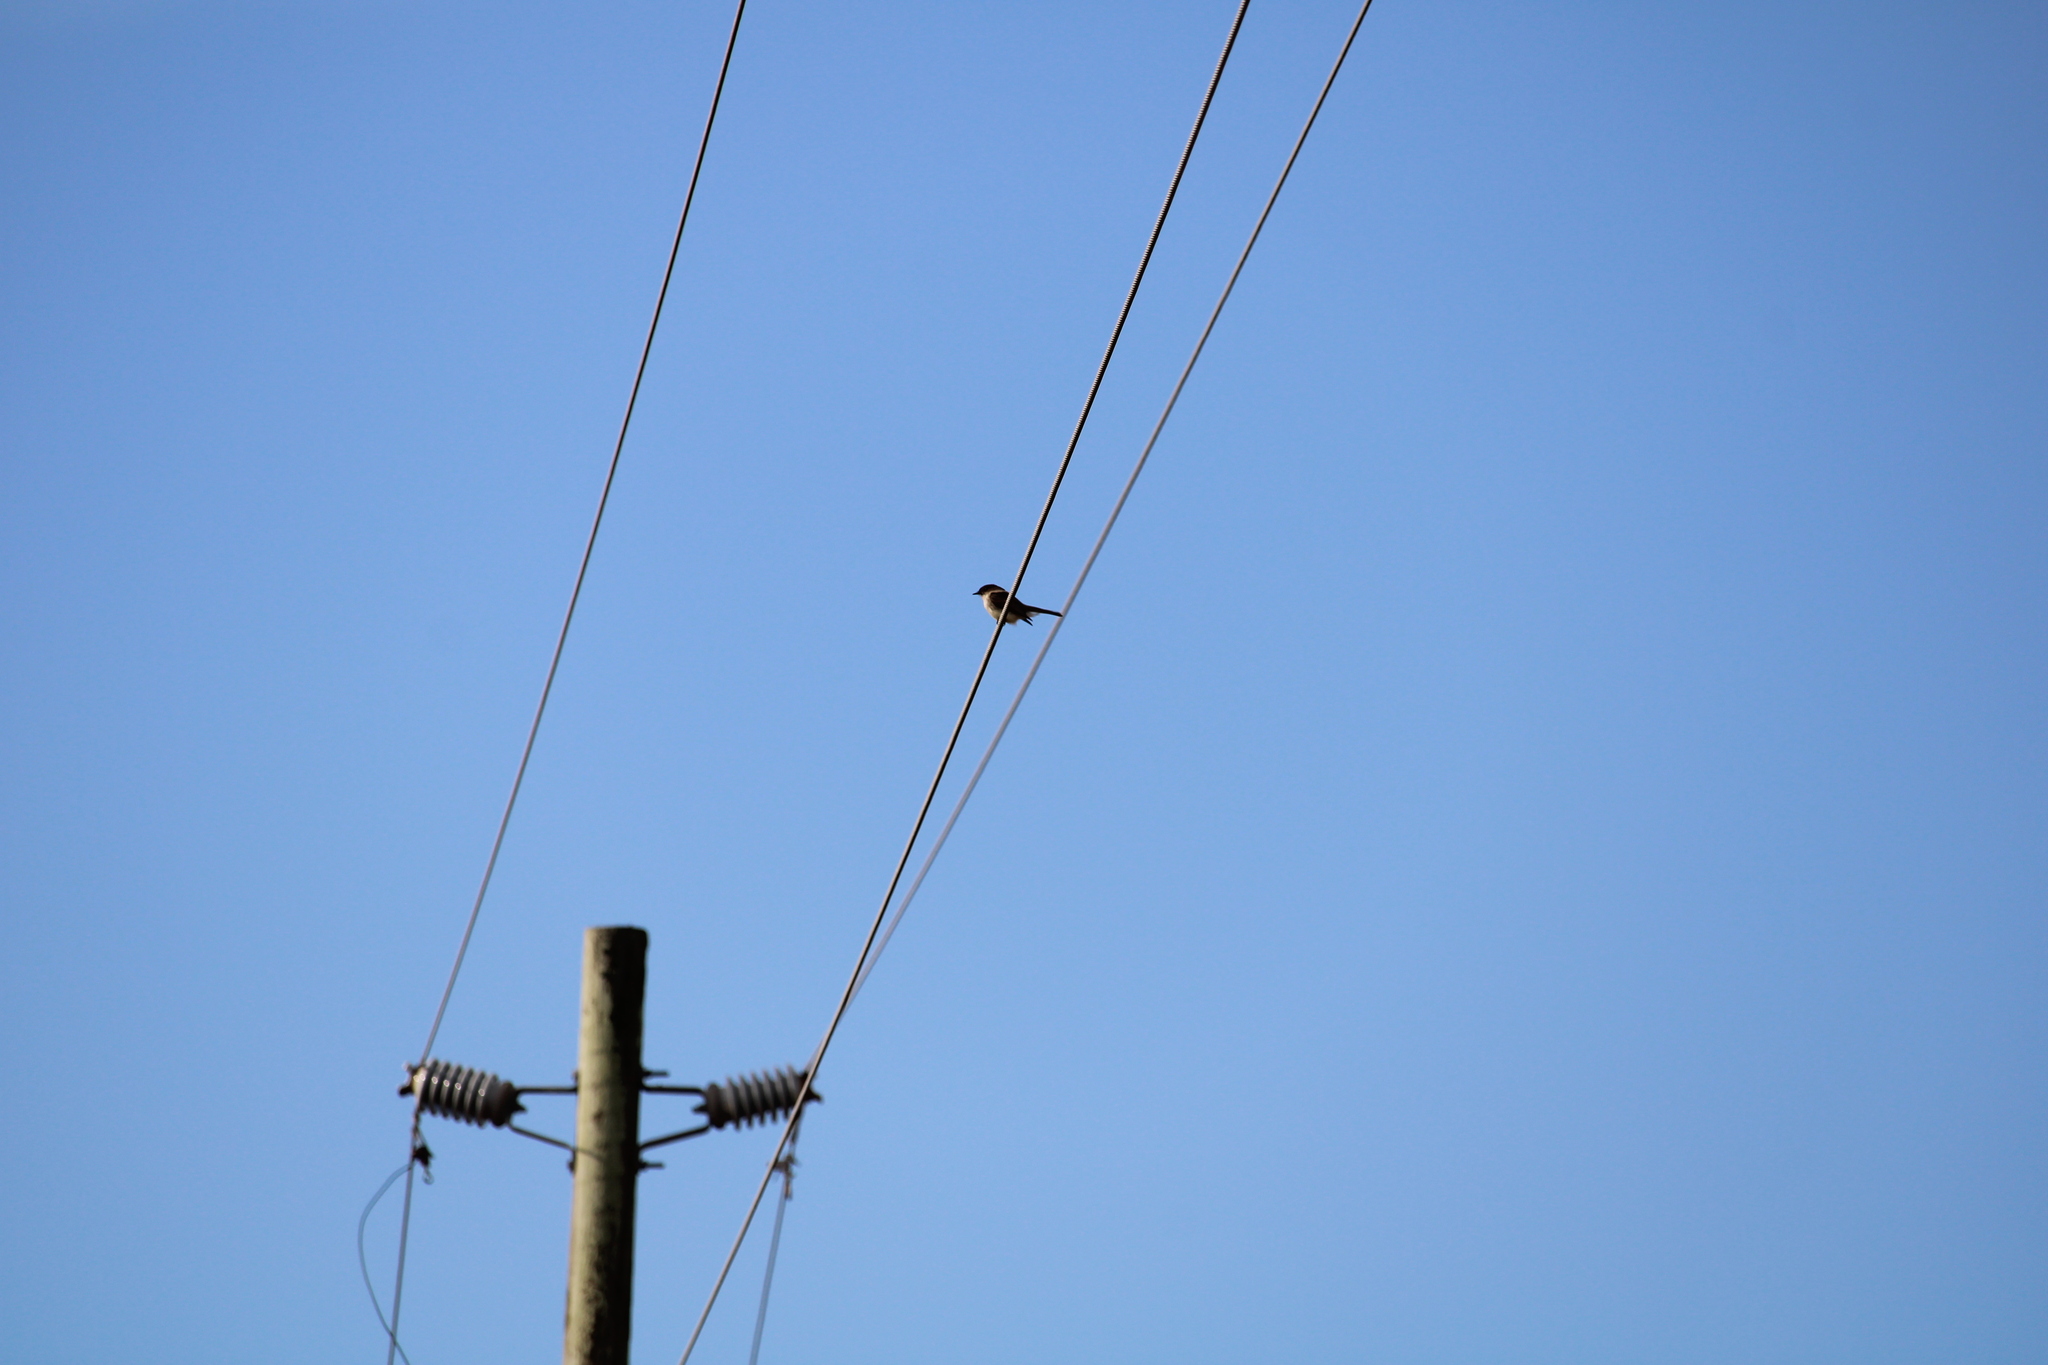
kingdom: Animalia
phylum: Chordata
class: Aves
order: Passeriformes
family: Tyrannidae
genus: Sayornis
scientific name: Sayornis phoebe
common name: Eastern phoebe
